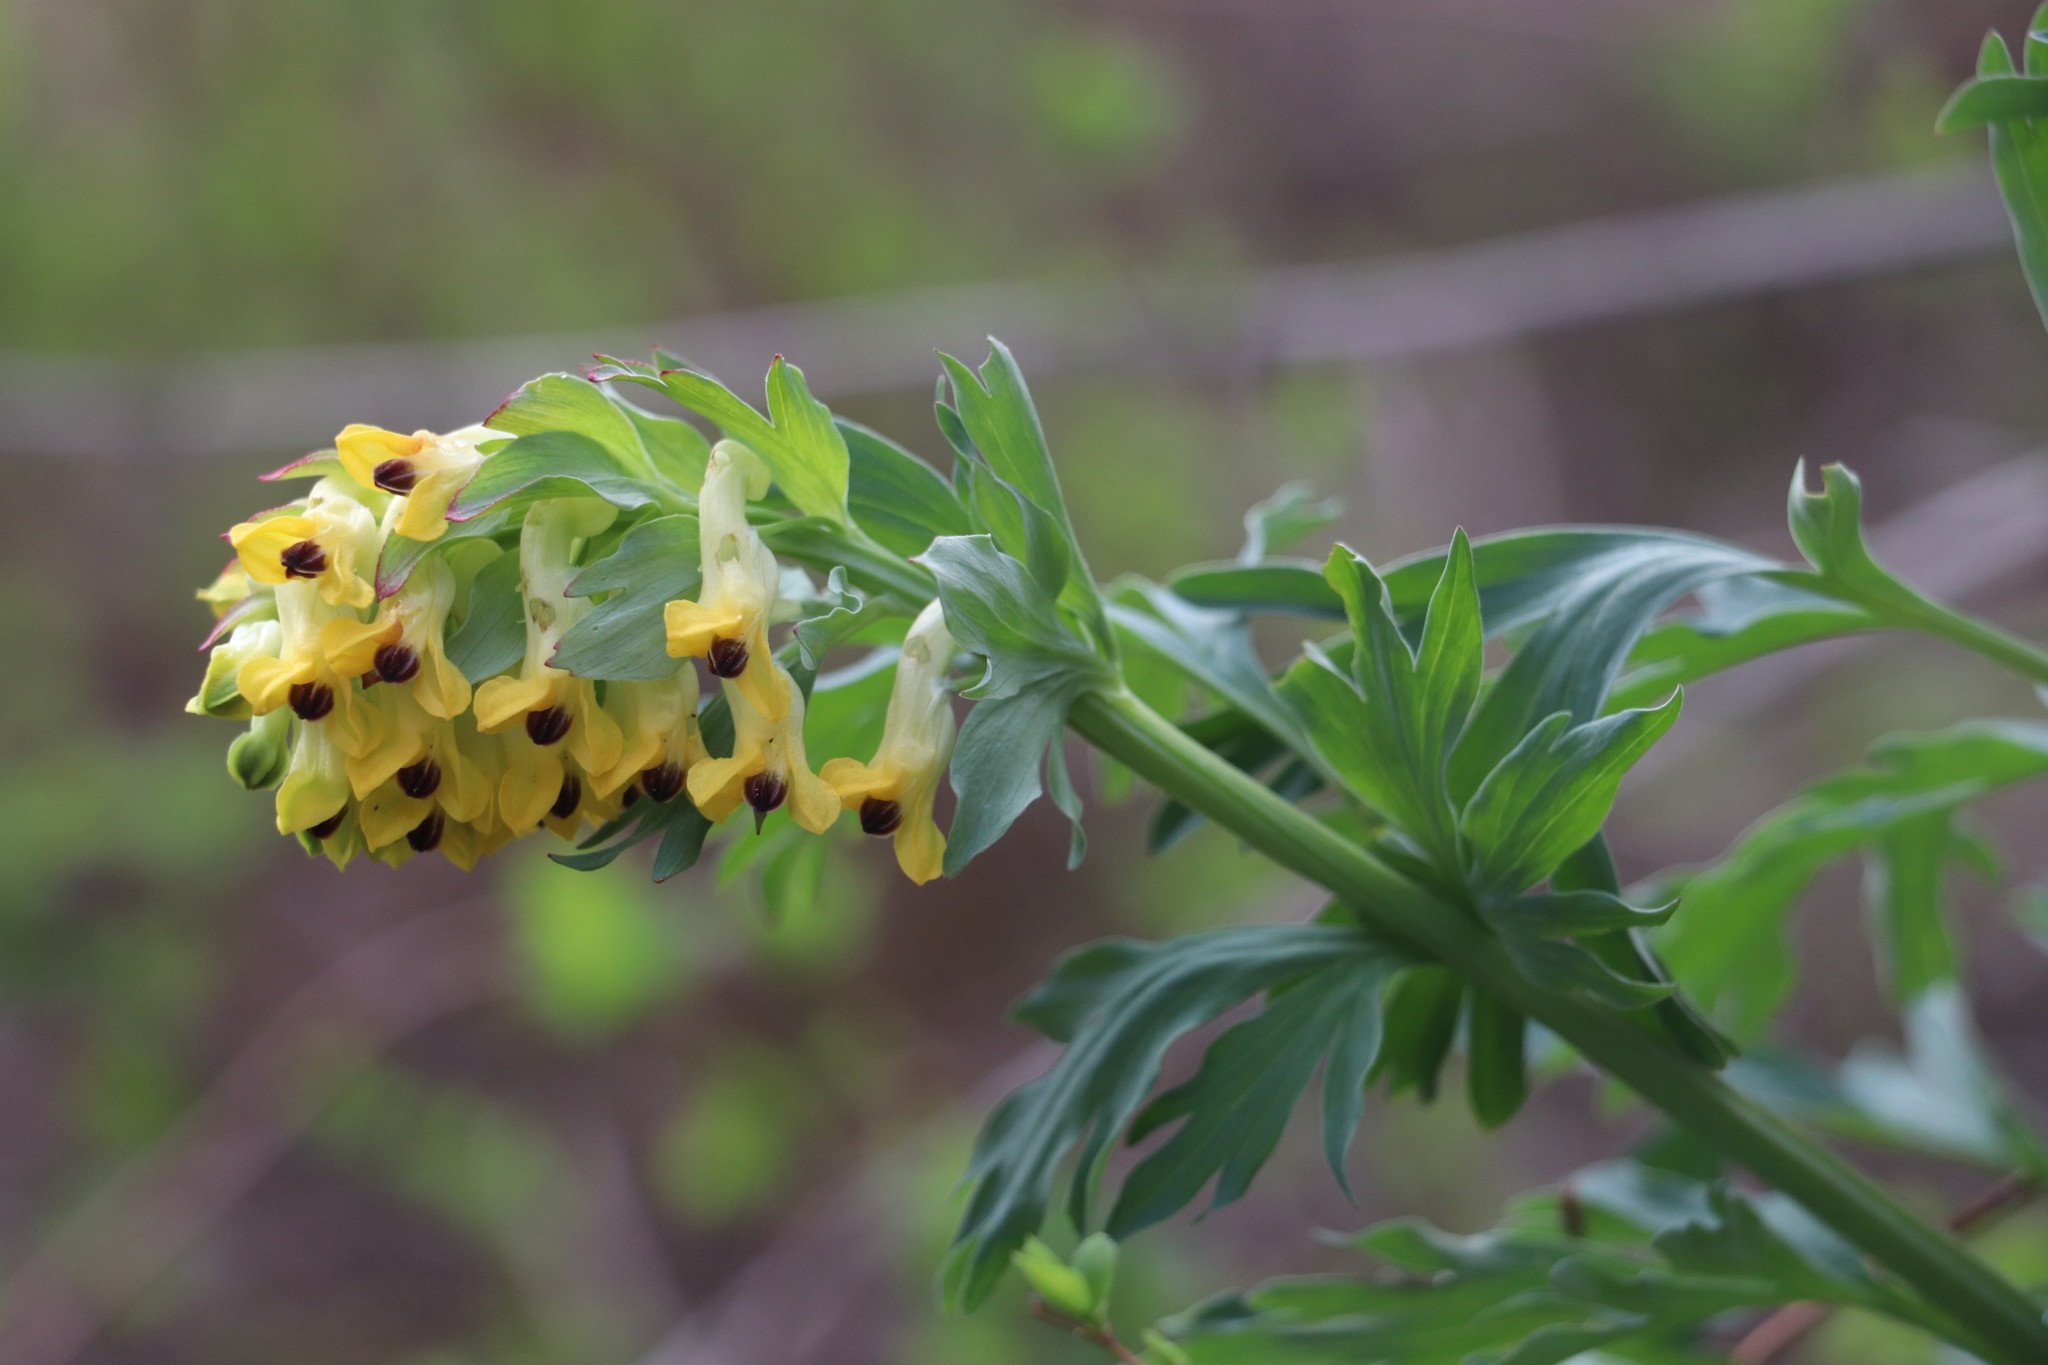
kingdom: Plantae
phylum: Tracheophyta
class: Magnoliopsida
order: Ranunculales
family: Papaveraceae
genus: Corydalis
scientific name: Corydalis nobilis
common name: Siberian corydalis
